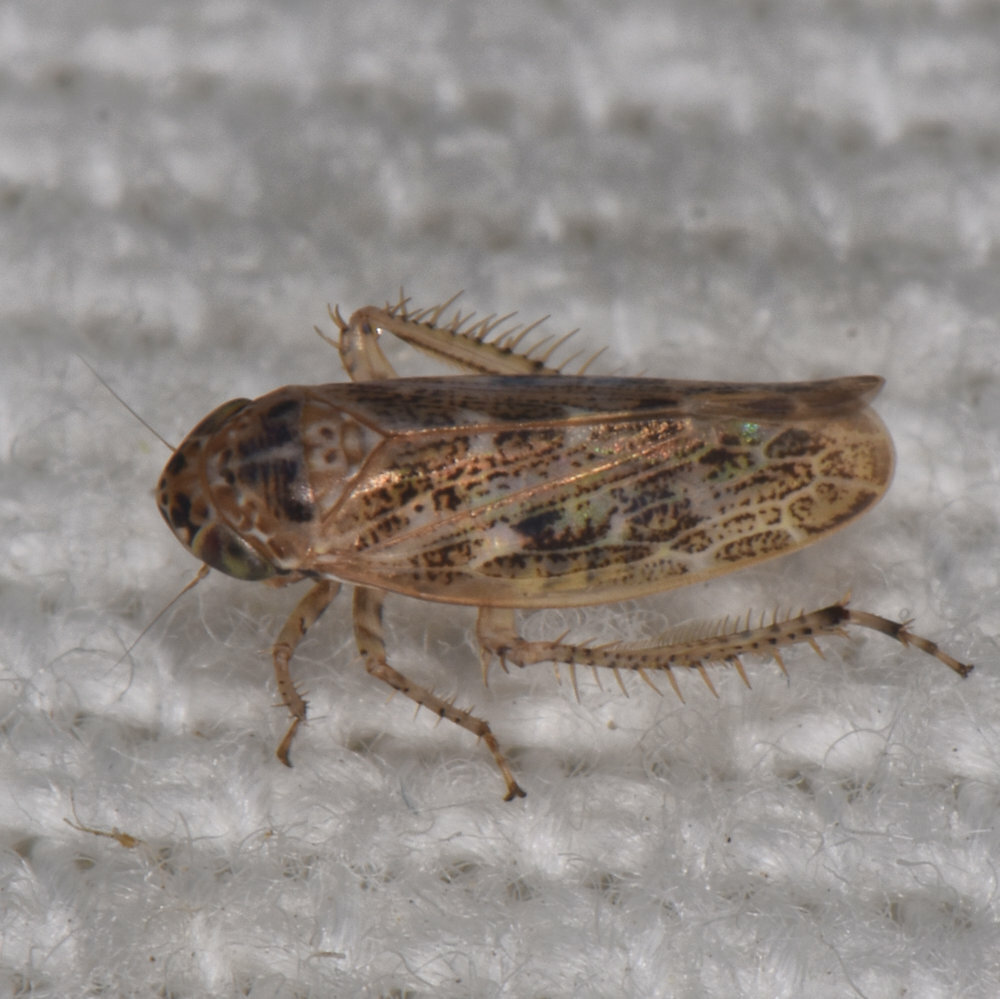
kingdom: Animalia
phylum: Arthropoda
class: Insecta
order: Hemiptera
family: Cicadellidae
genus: Euscelidius
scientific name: Euscelidius variegatus
